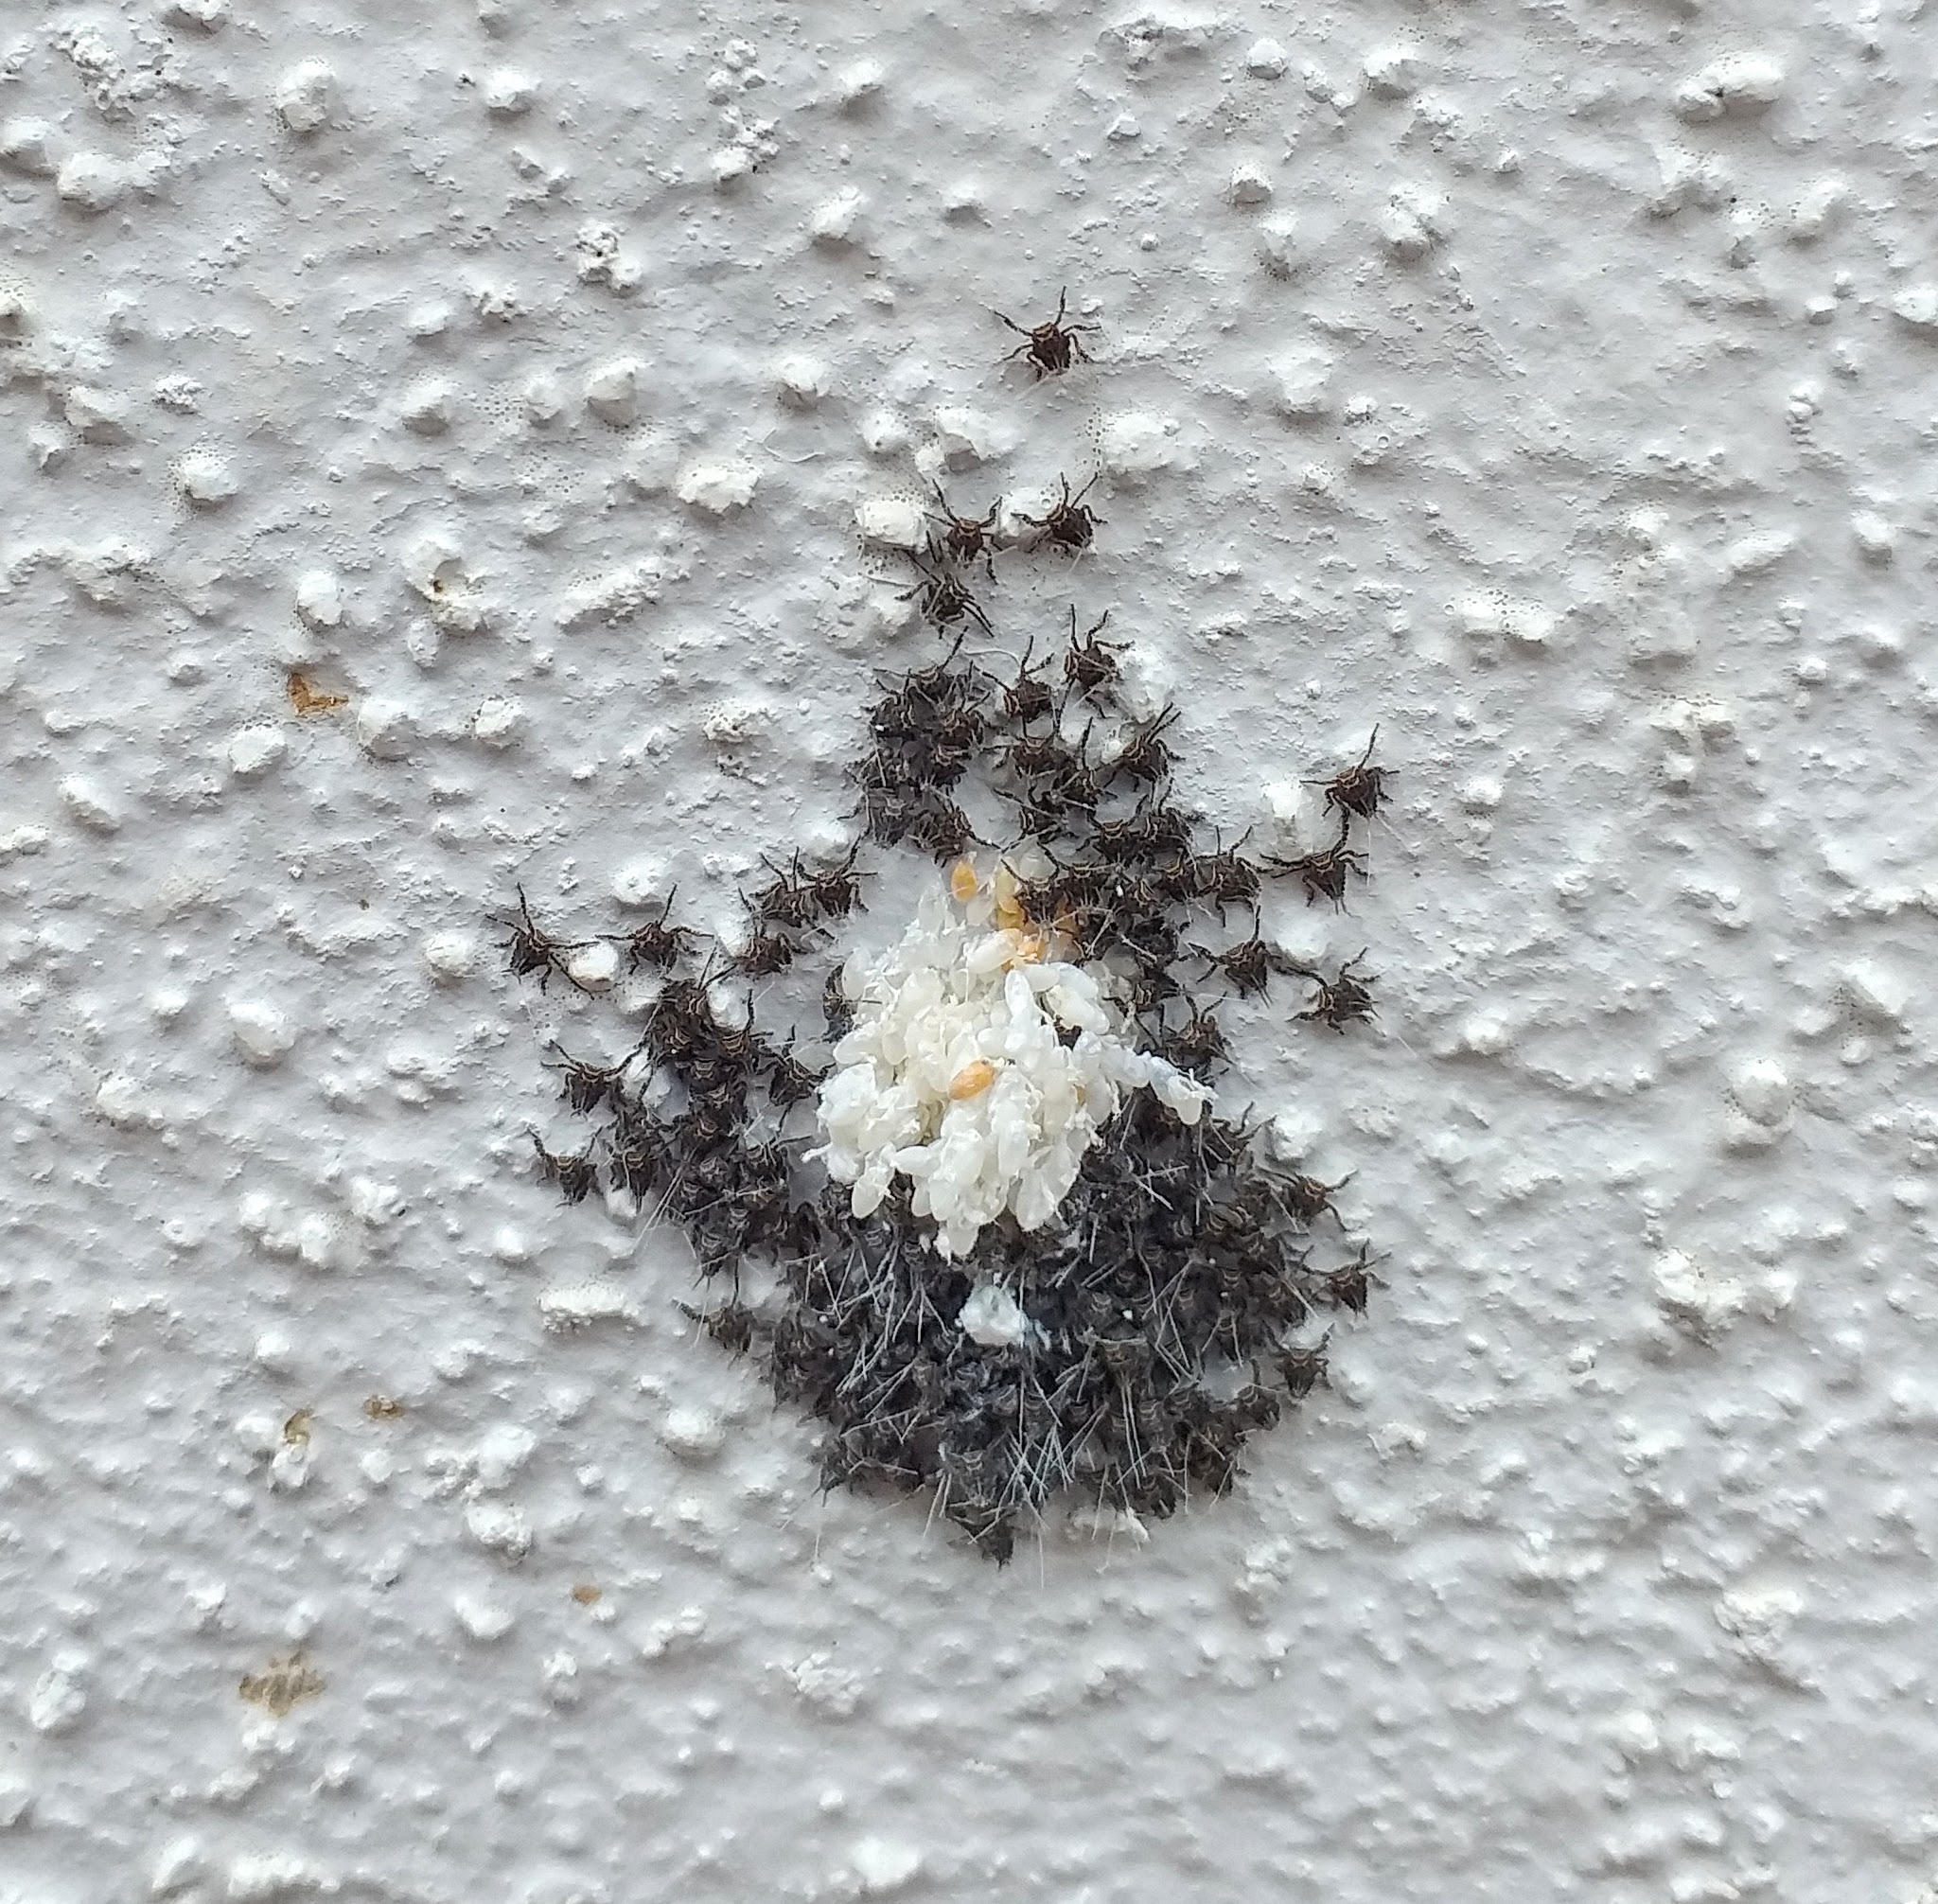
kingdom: Animalia
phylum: Arthropoda
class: Insecta
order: Hemiptera
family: Eurybrachidae
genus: Eurybrachys
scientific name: Eurybrachys tomentosa
